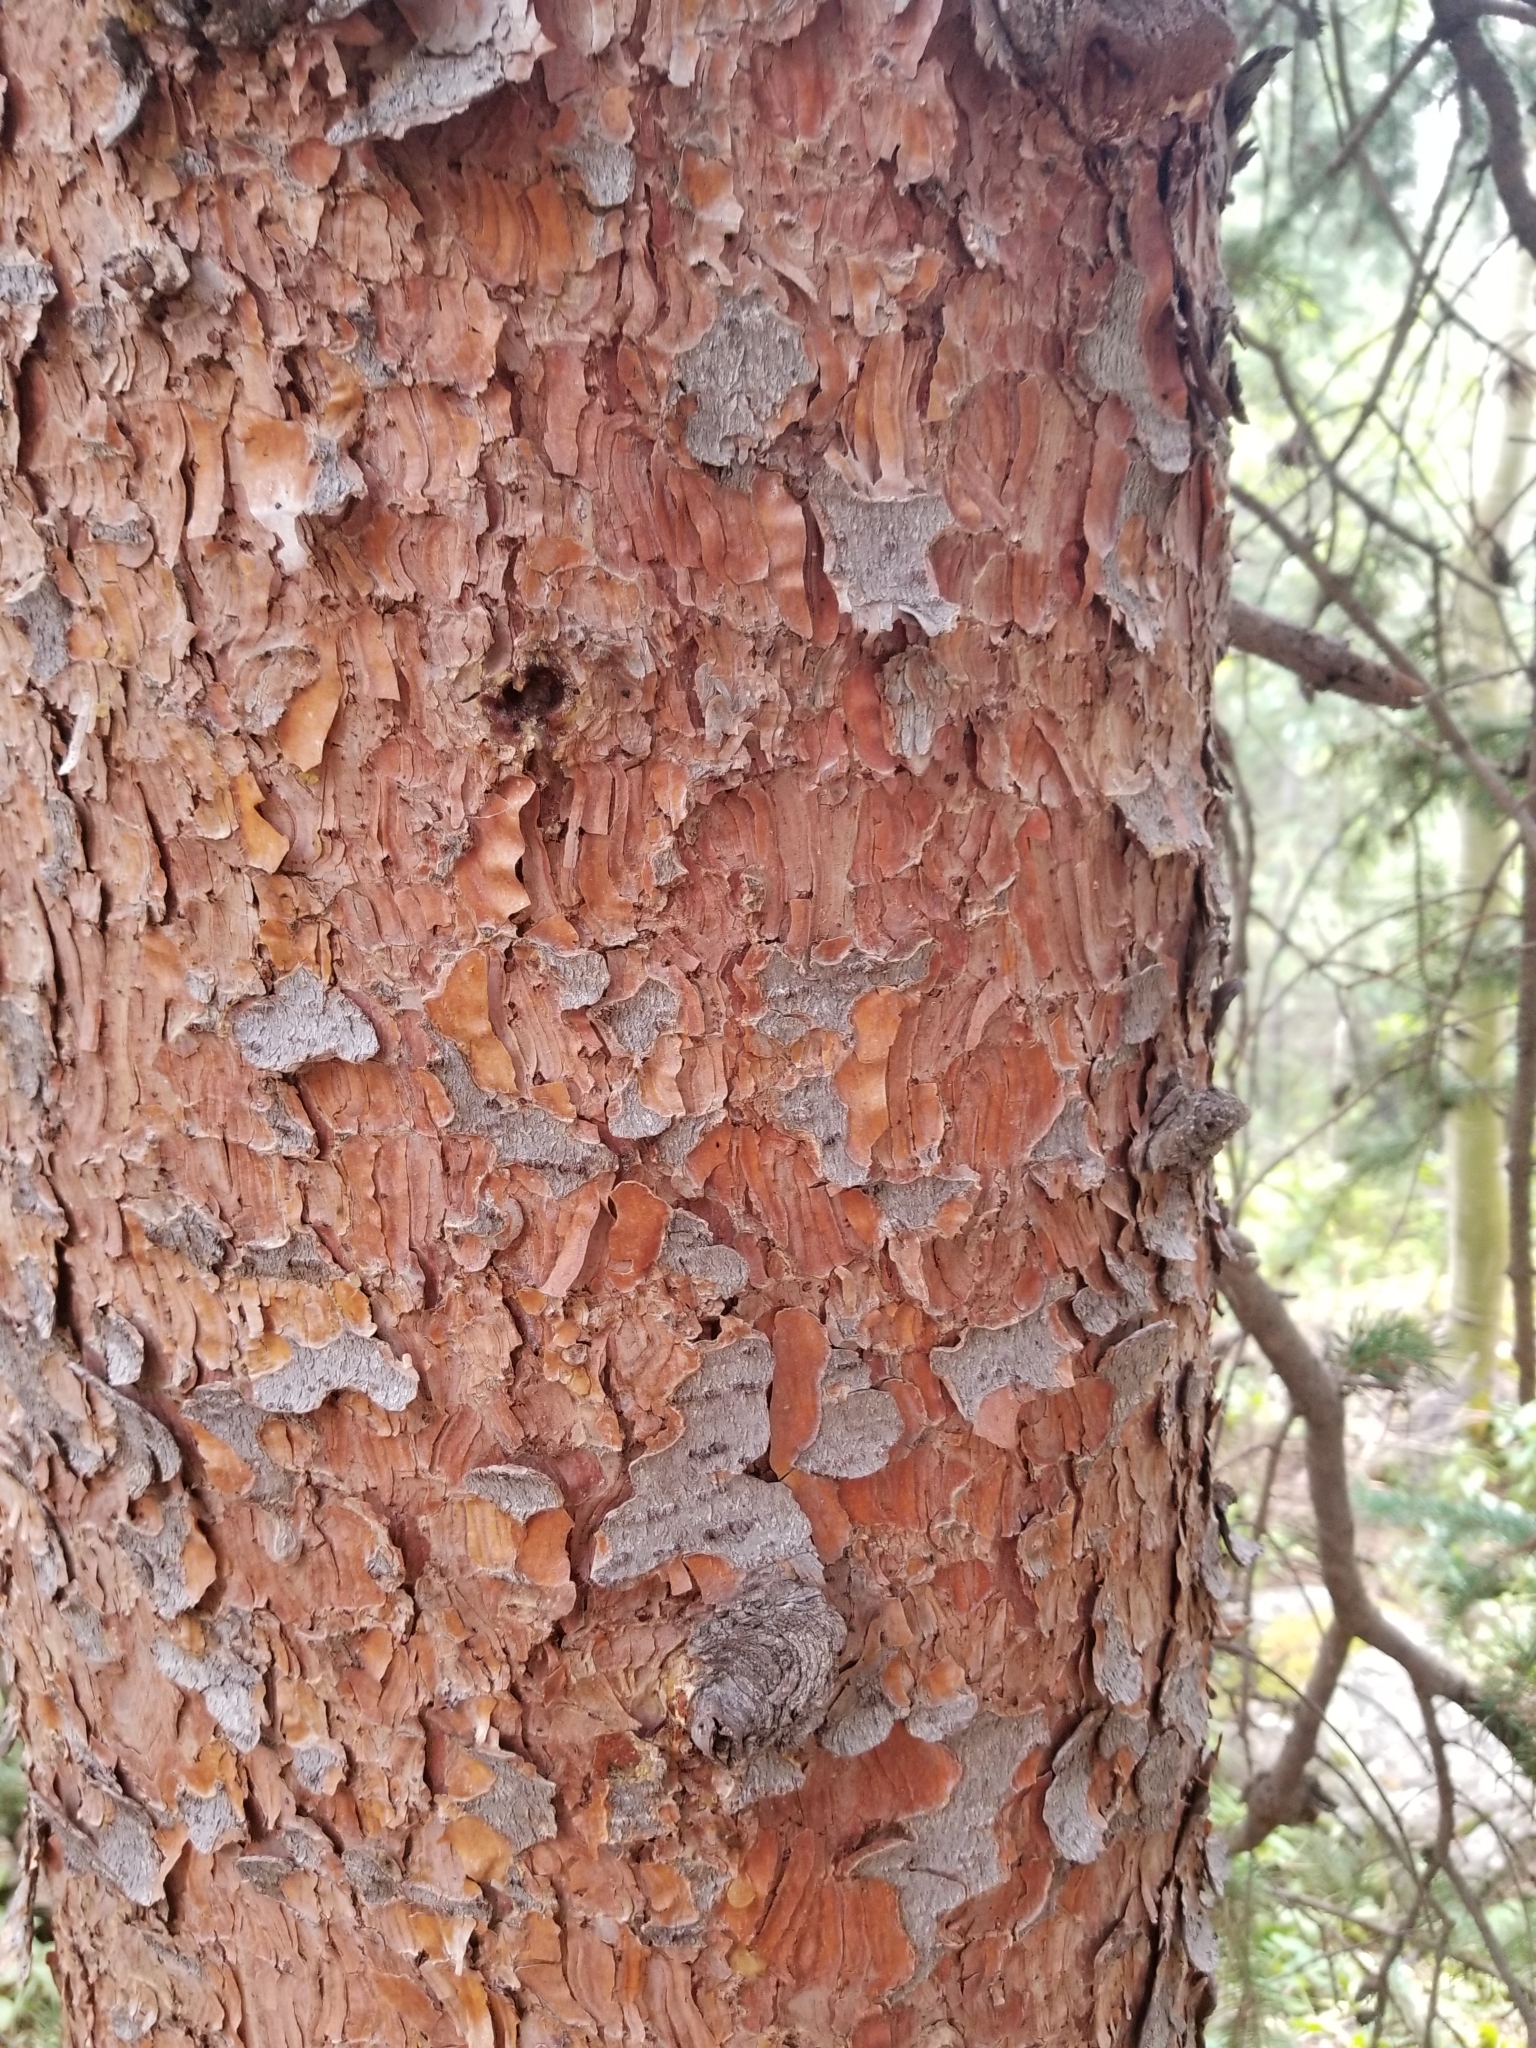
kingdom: Plantae
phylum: Tracheophyta
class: Pinopsida
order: Pinales
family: Pinaceae
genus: Picea
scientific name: Picea engelmannii
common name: Engelmann spruce
